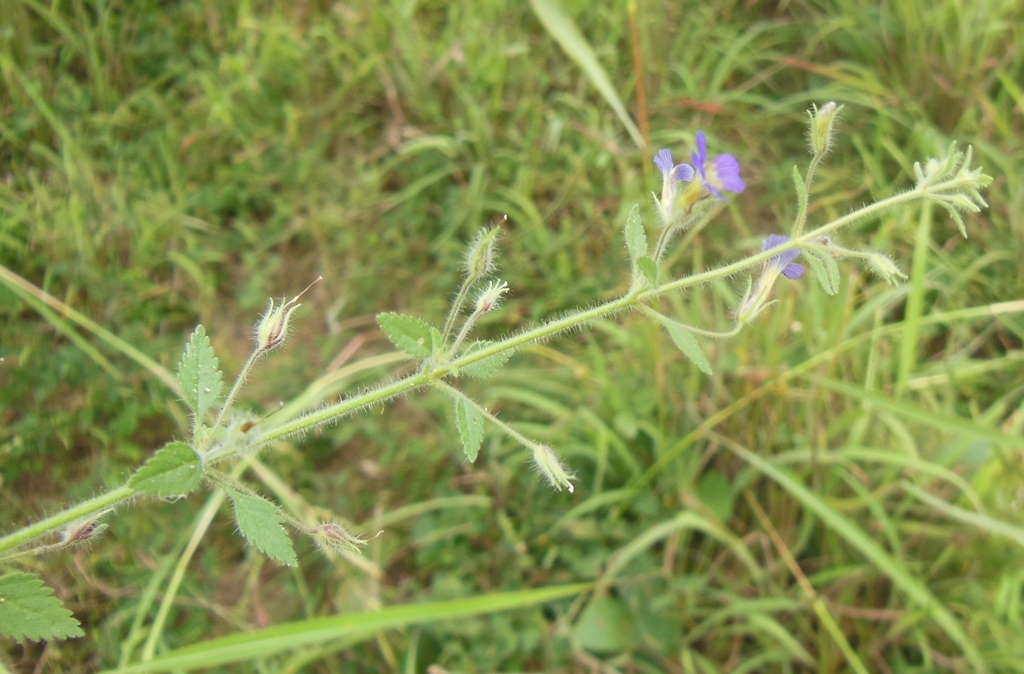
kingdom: Plantae
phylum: Tracheophyta
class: Magnoliopsida
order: Lamiales
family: Plantaginaceae
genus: Stemodia
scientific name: Stemodia palmeri
